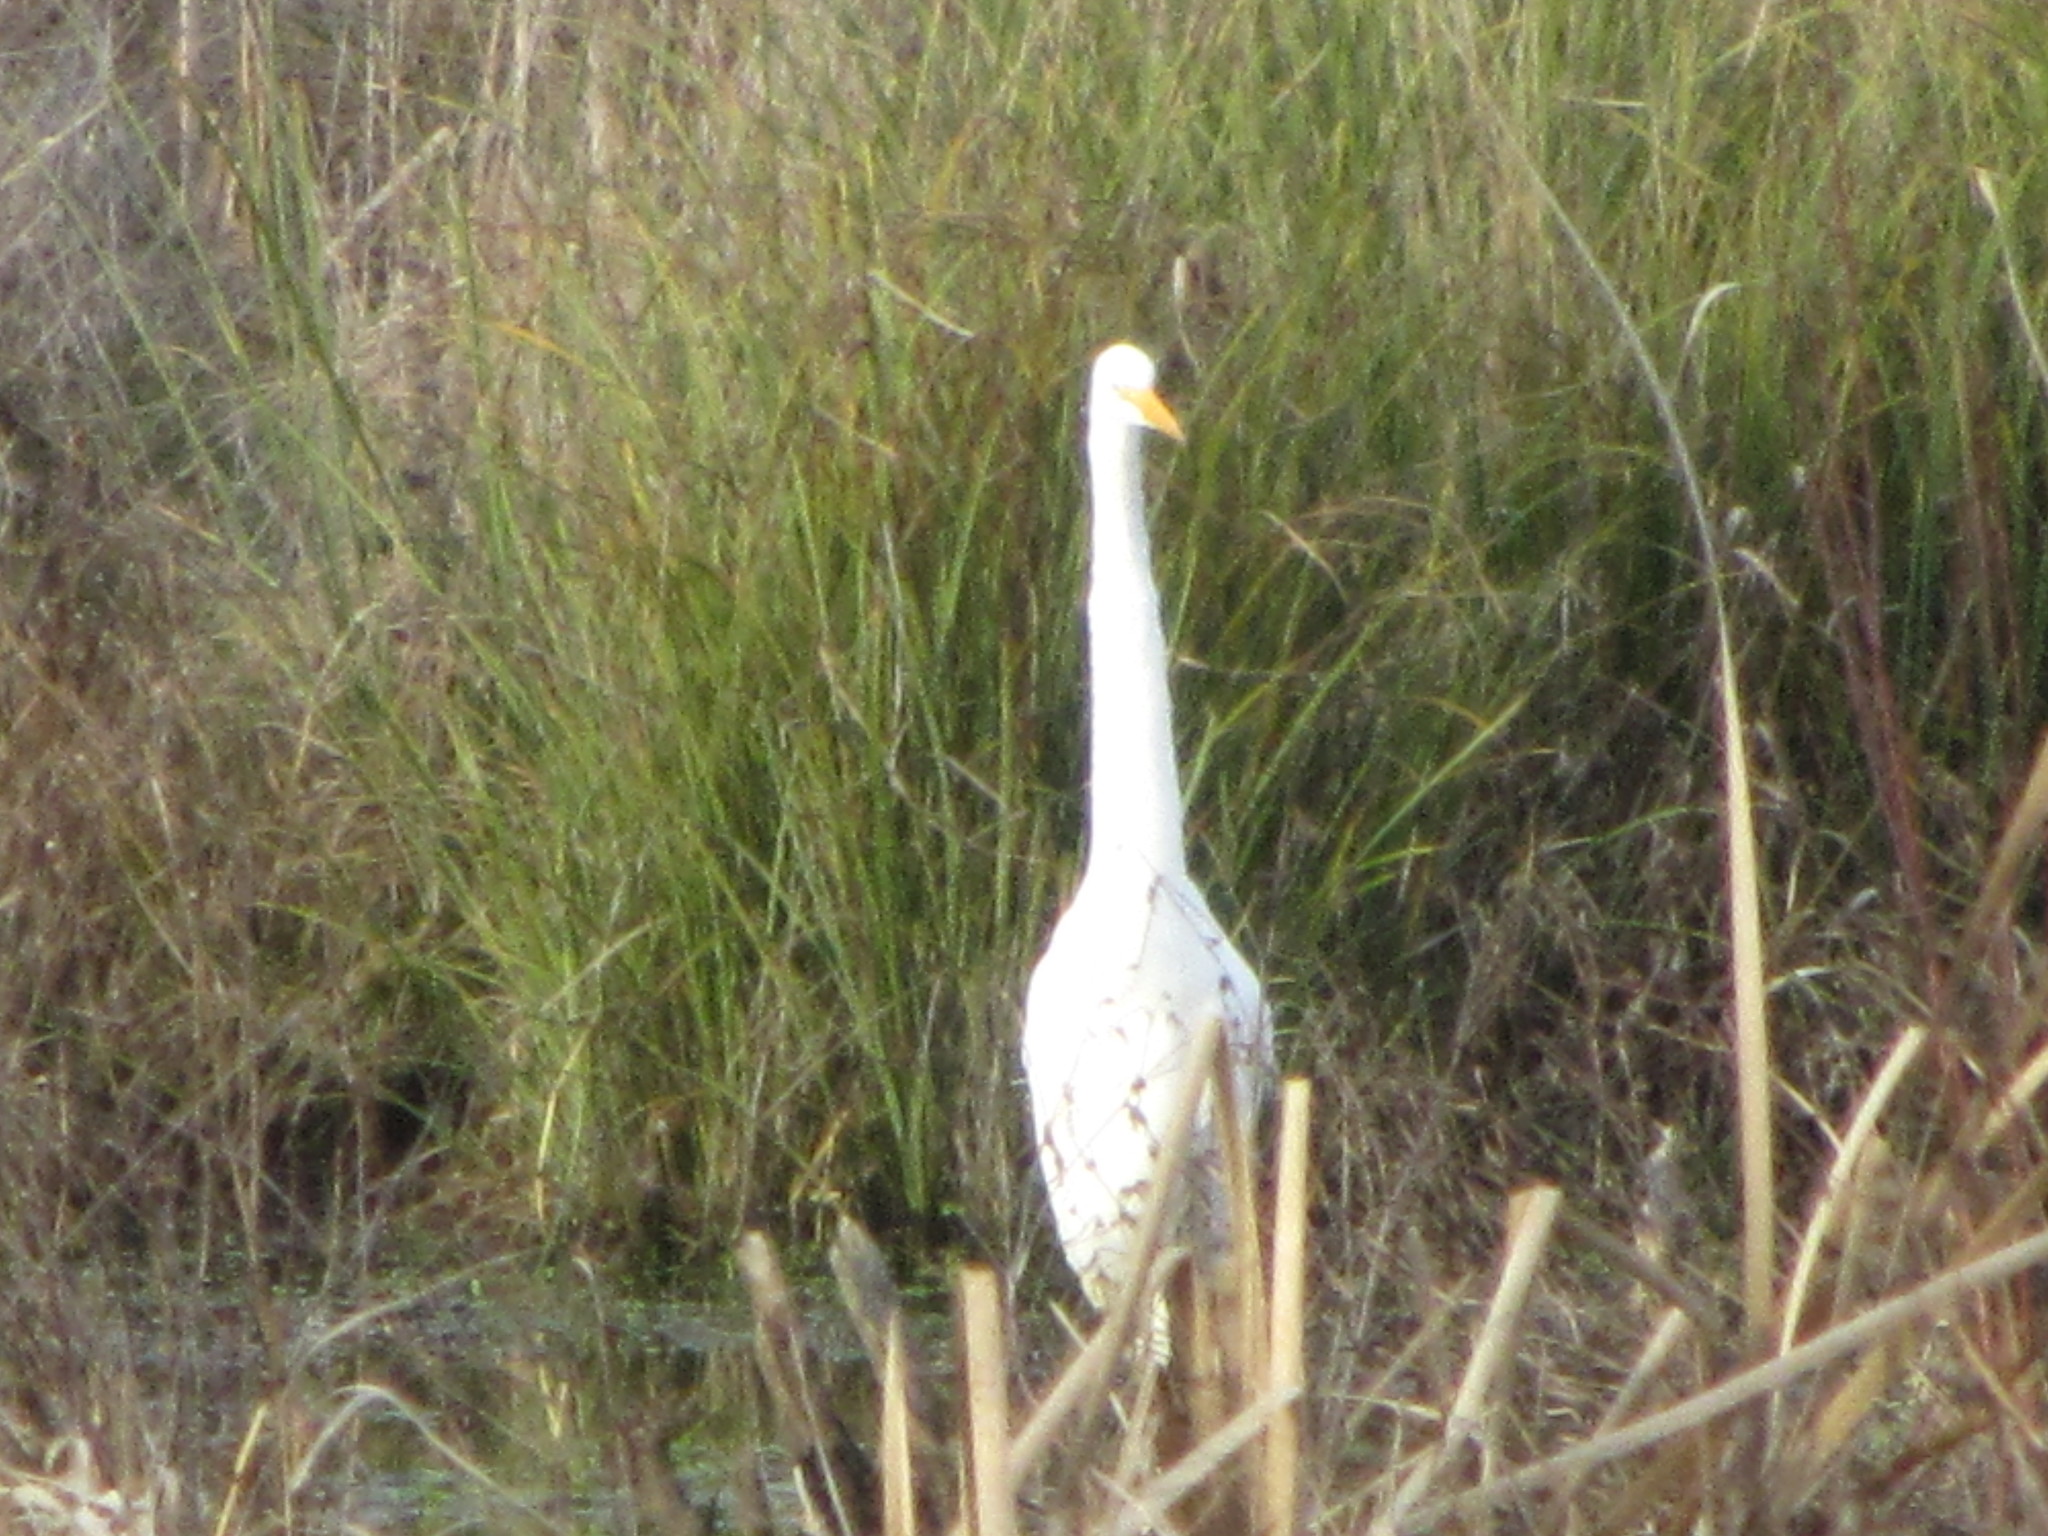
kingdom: Animalia
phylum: Chordata
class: Aves
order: Pelecaniformes
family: Ardeidae
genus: Ardea
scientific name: Ardea alba
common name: Great egret
